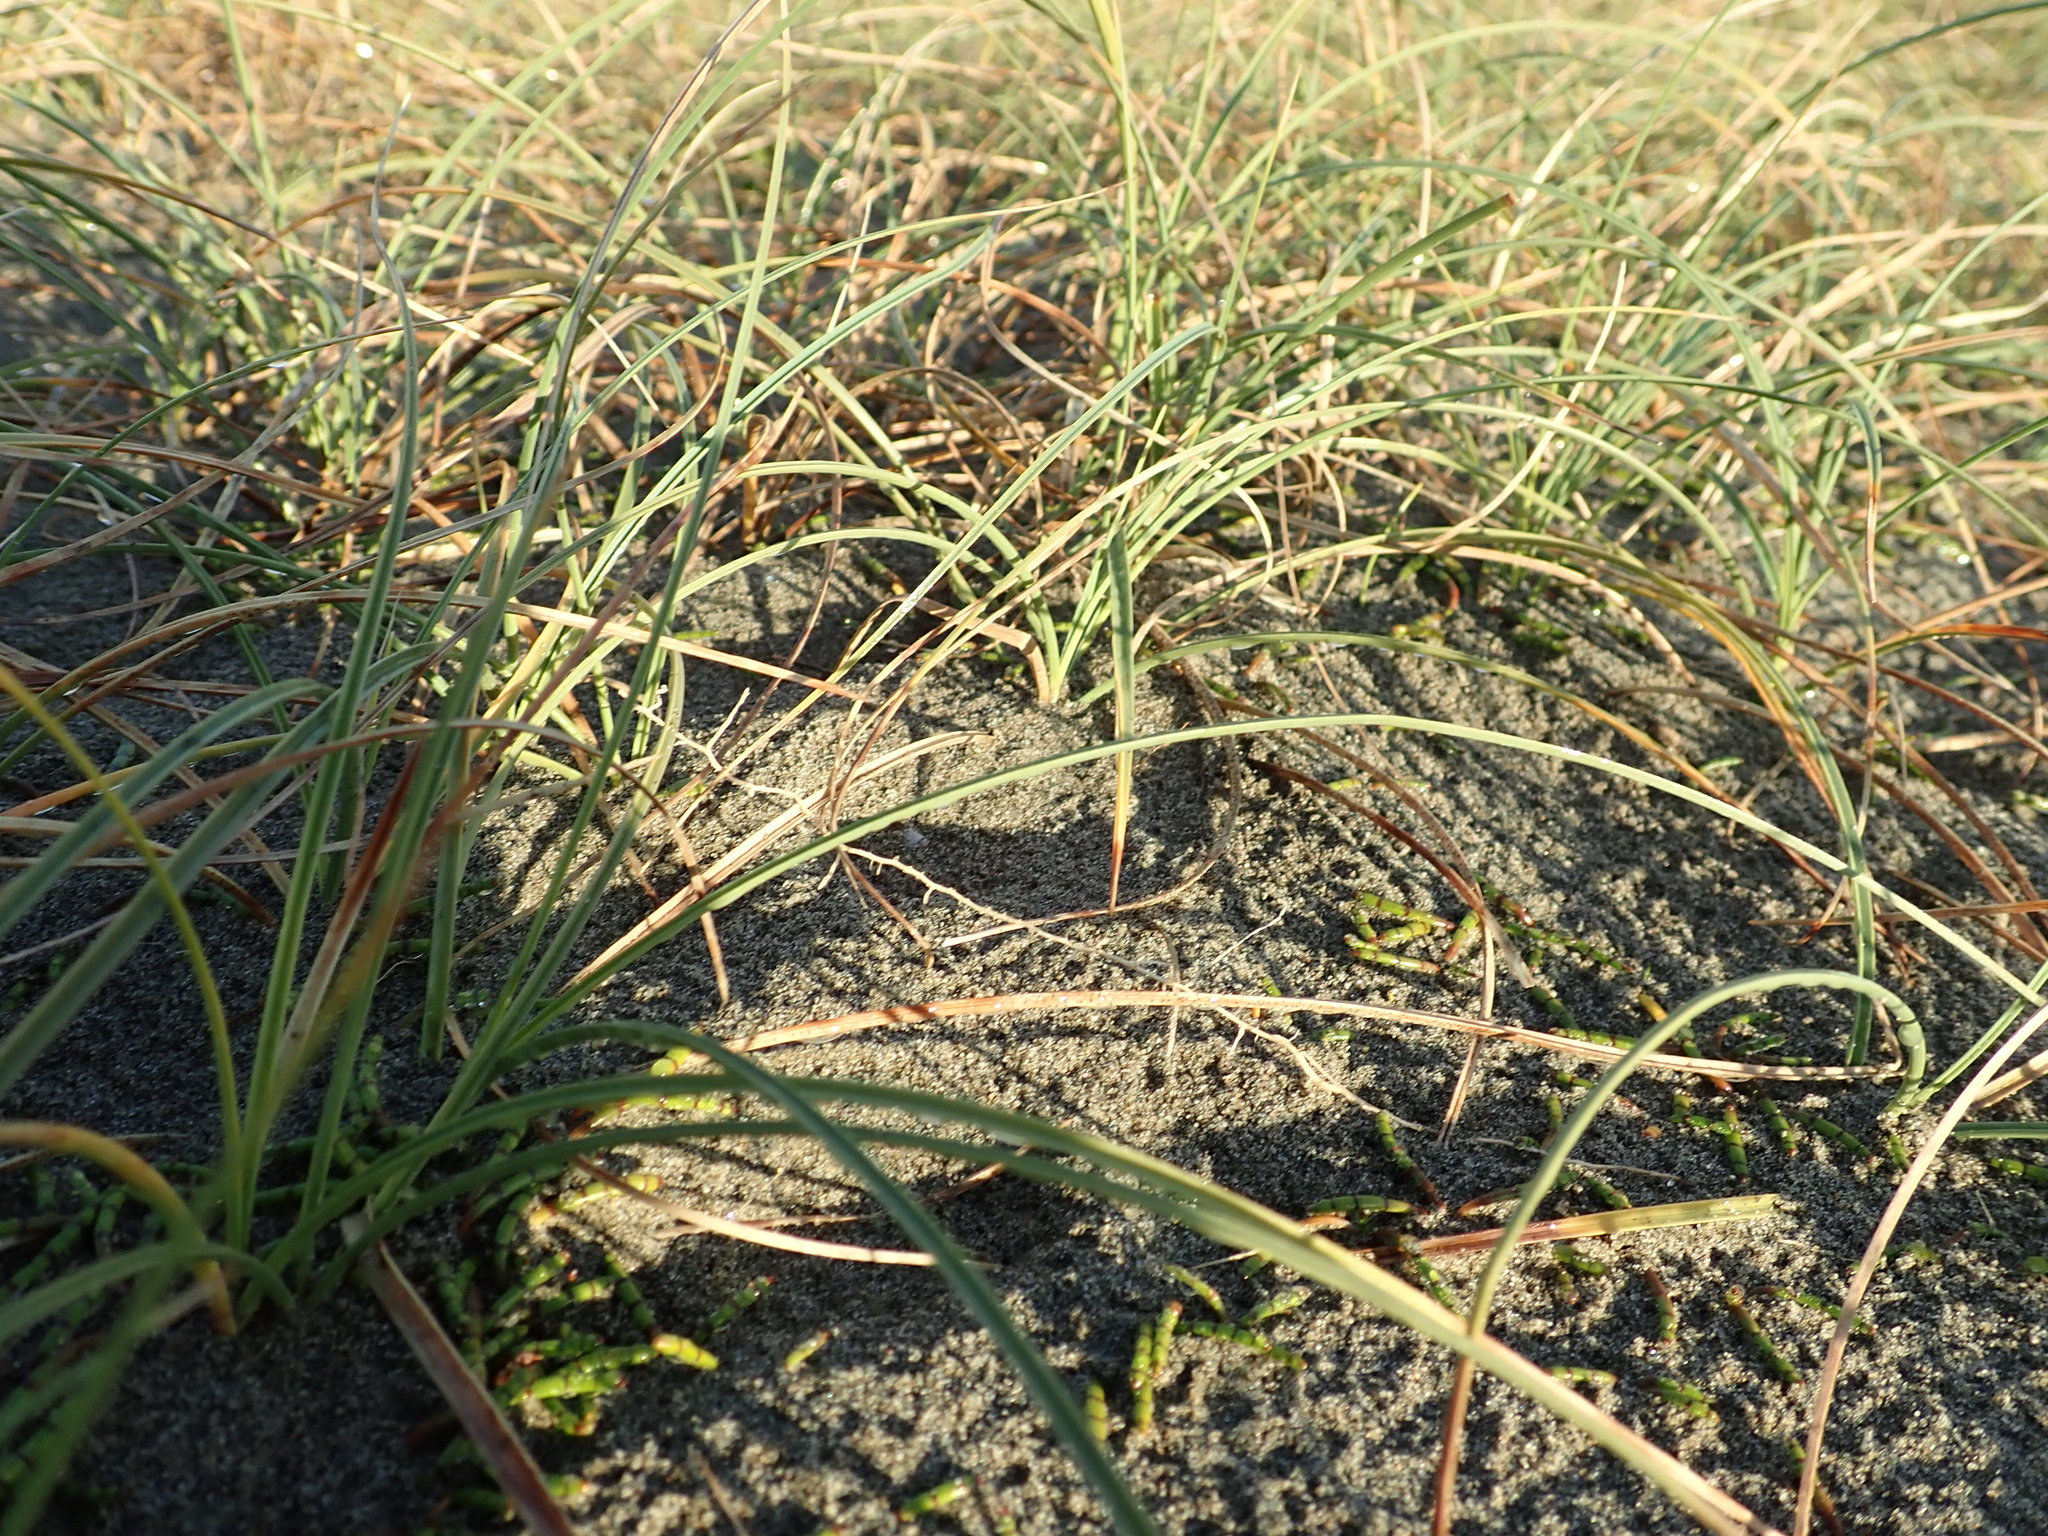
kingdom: Plantae
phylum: Tracheophyta
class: Liliopsida
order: Poales
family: Cyperaceae
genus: Carex
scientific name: Carex pumila
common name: Dwarf sedge
